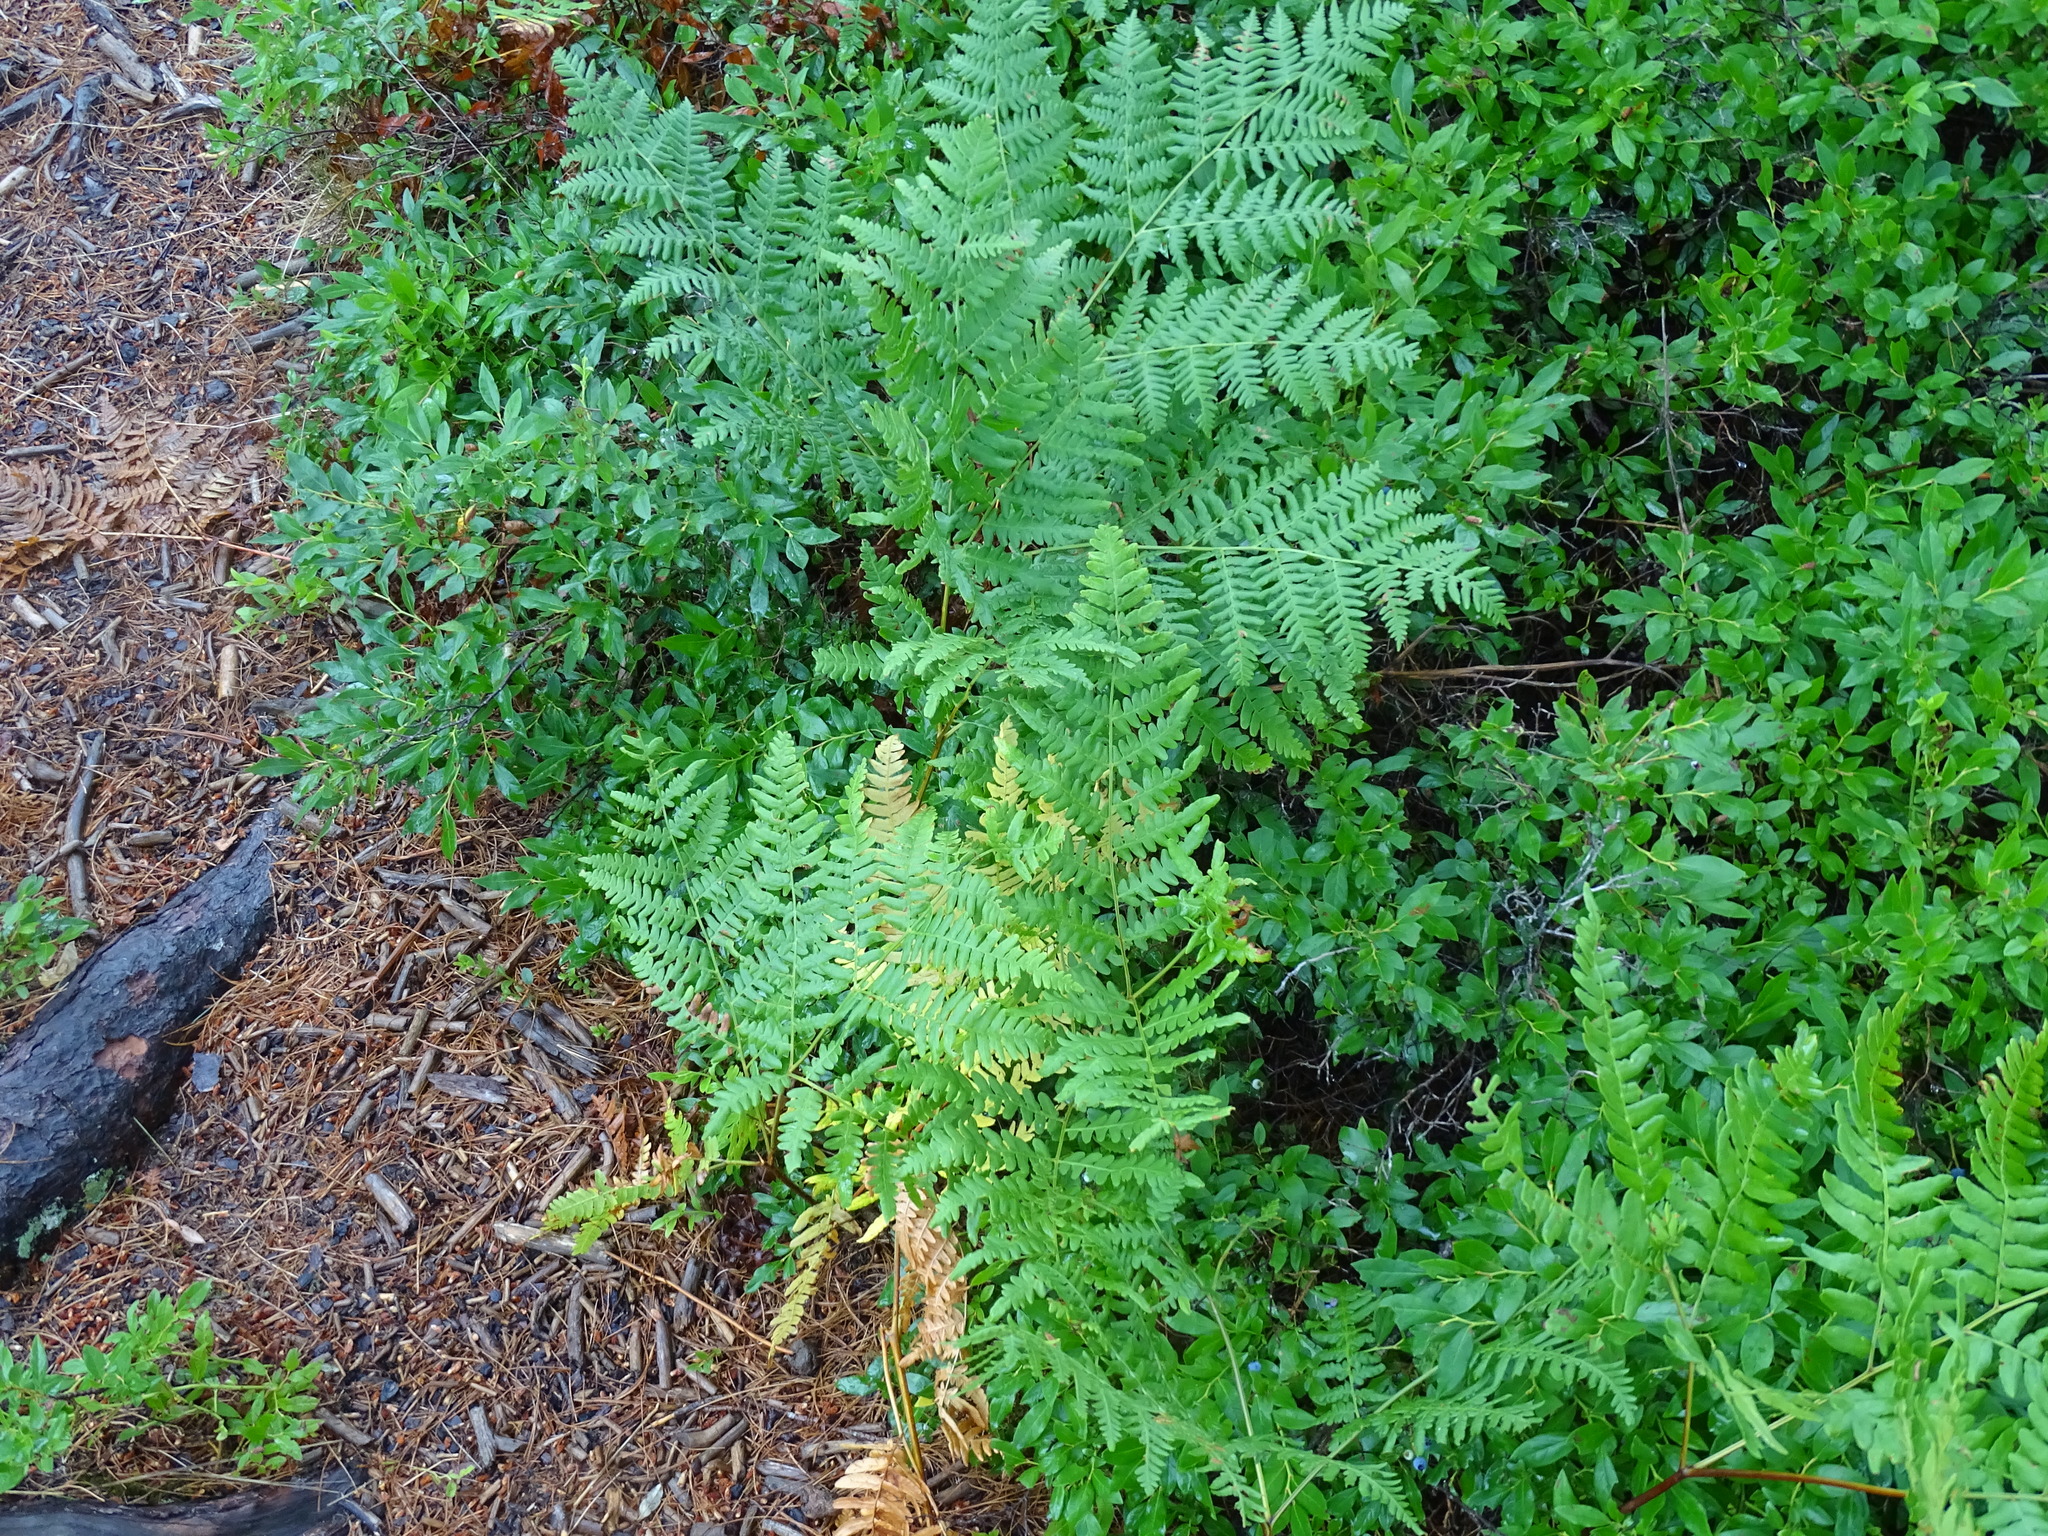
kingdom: Plantae
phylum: Tracheophyta
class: Polypodiopsida
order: Polypodiales
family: Dennstaedtiaceae
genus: Pteridium
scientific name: Pteridium aquilinum
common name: Bracken
